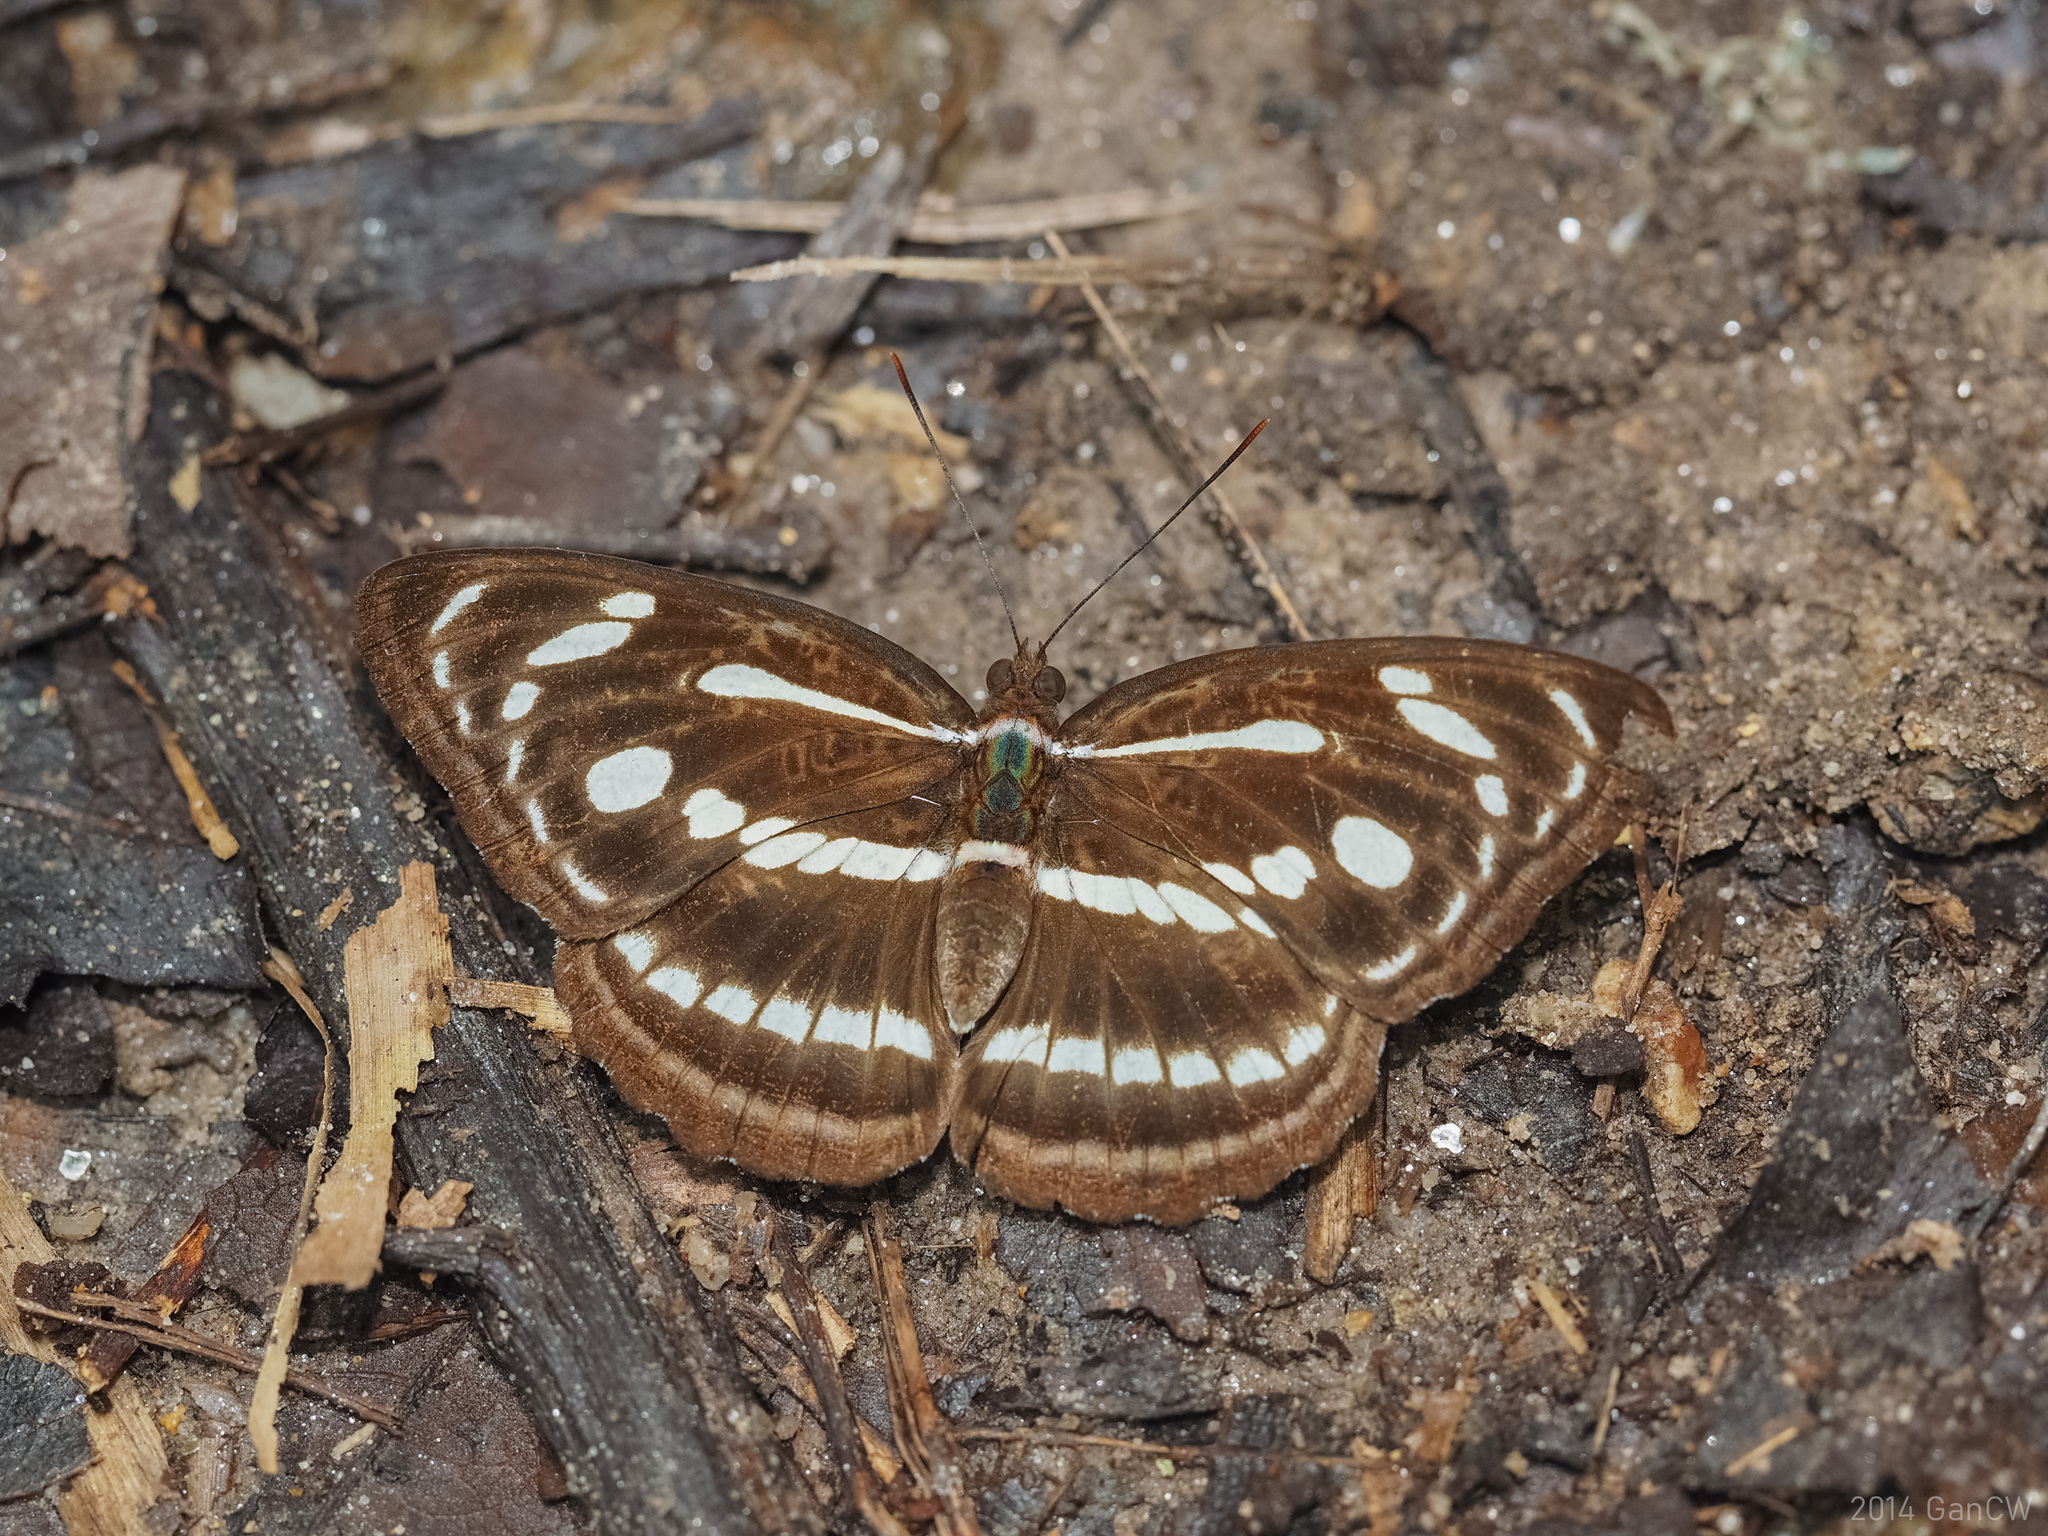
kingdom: Animalia
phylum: Arthropoda
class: Insecta
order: Lepidoptera
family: Nymphalidae
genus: Parathyma
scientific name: Parathyma pravara
